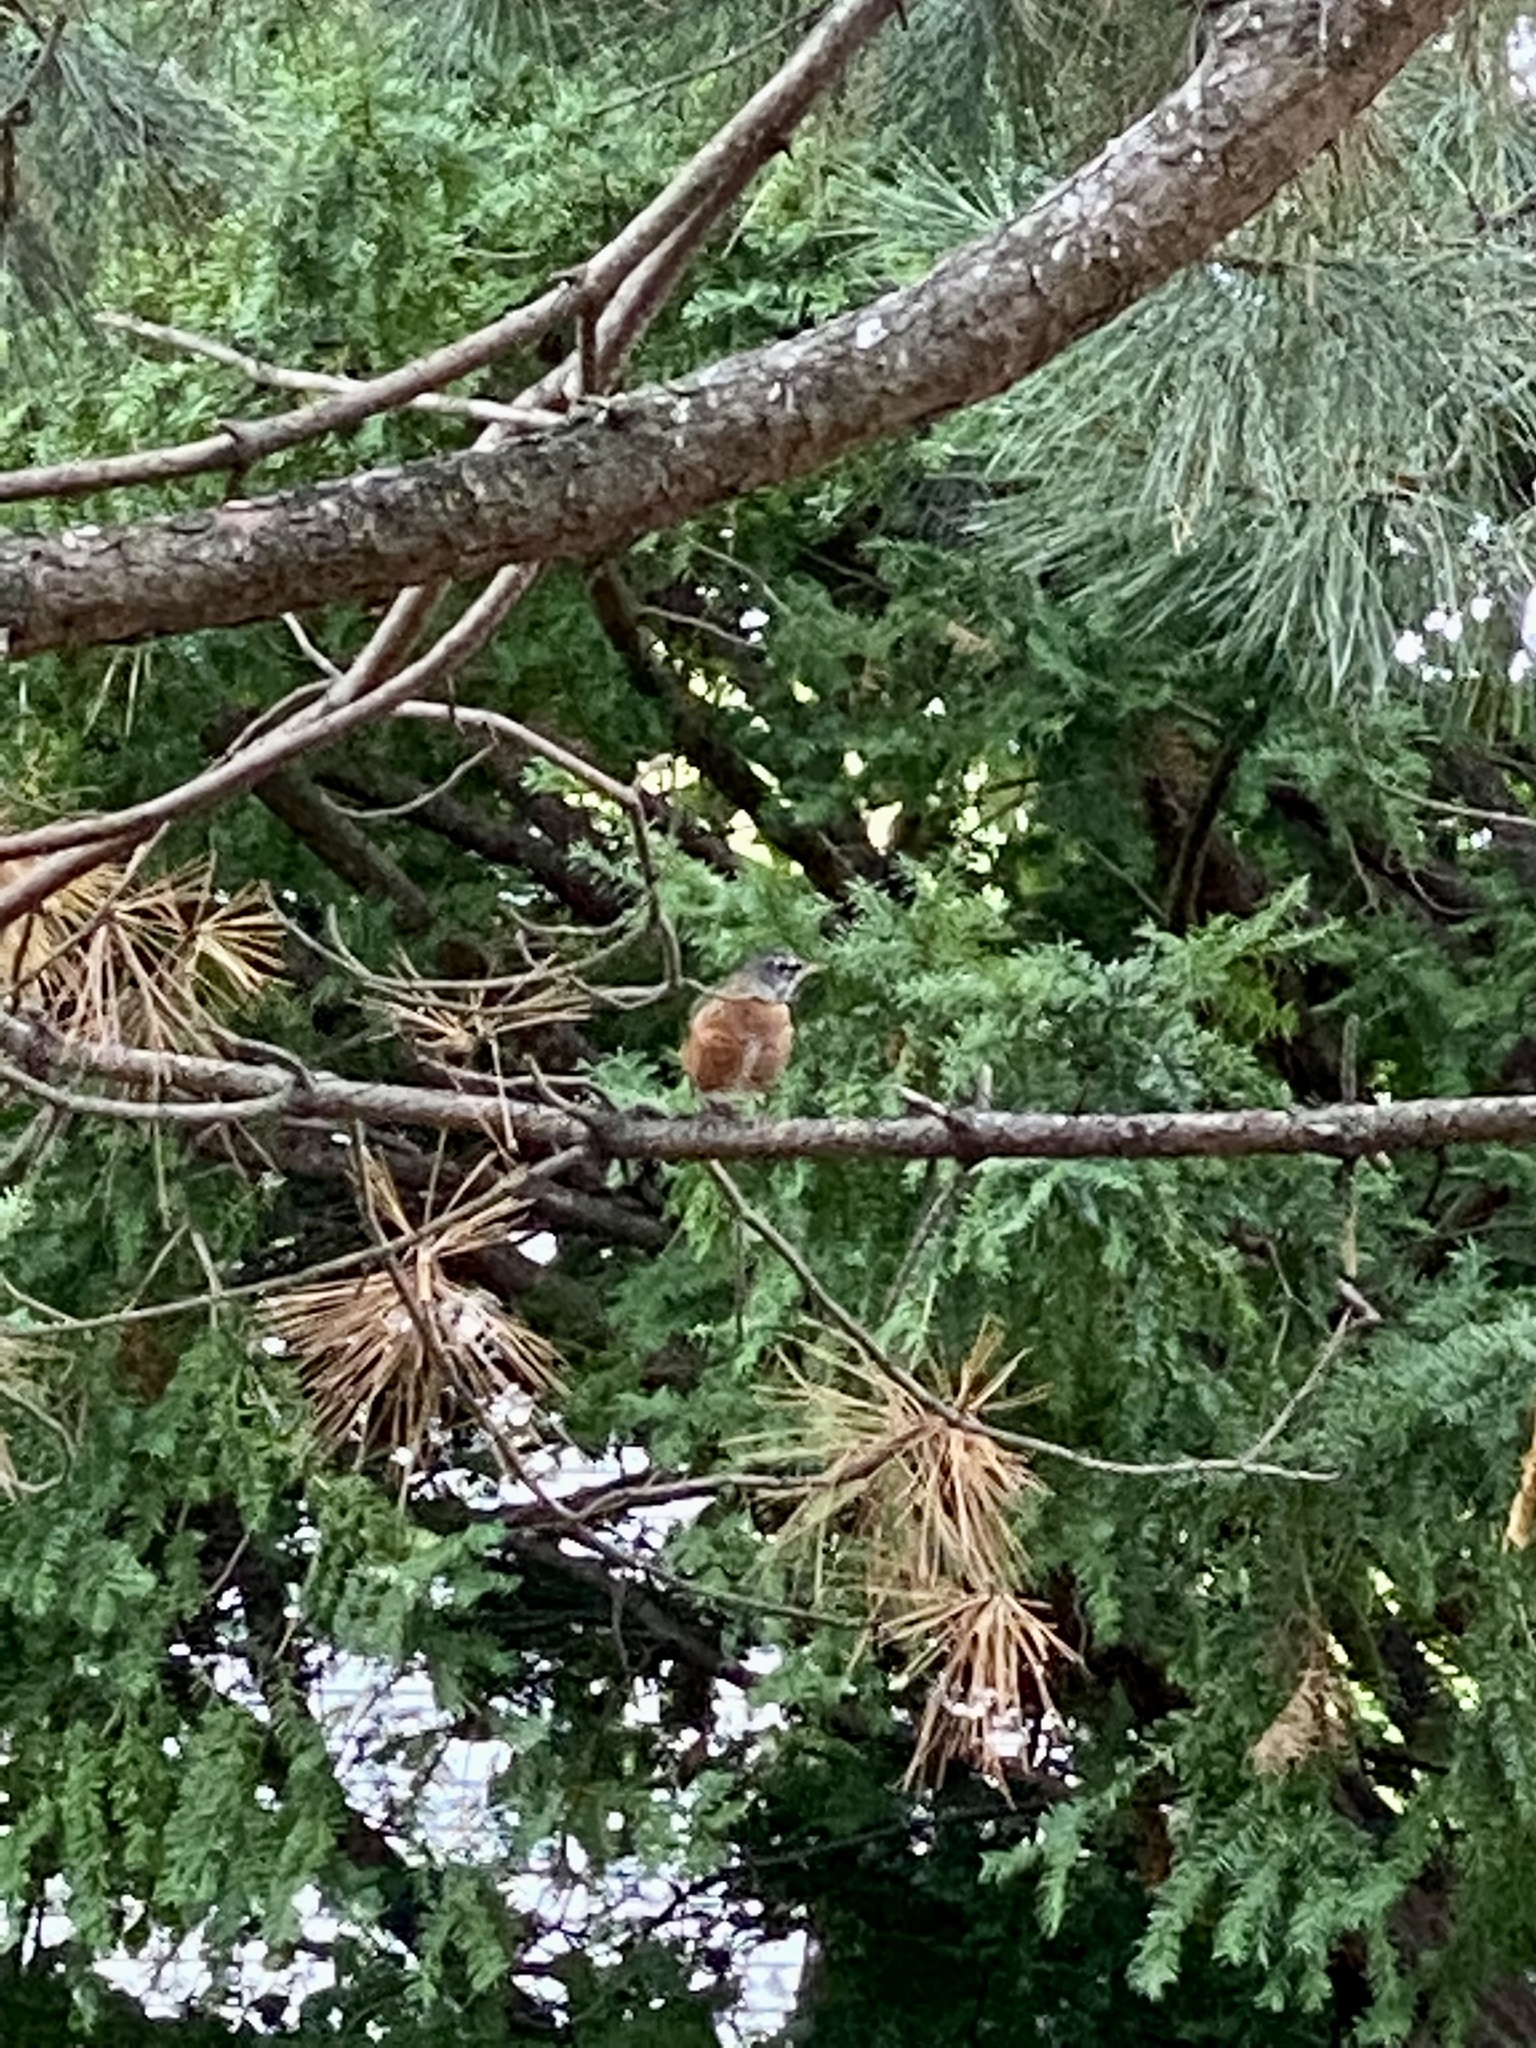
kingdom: Animalia
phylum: Chordata
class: Aves
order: Passeriformes
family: Turdidae
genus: Turdus
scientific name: Turdus migratorius
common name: American robin
